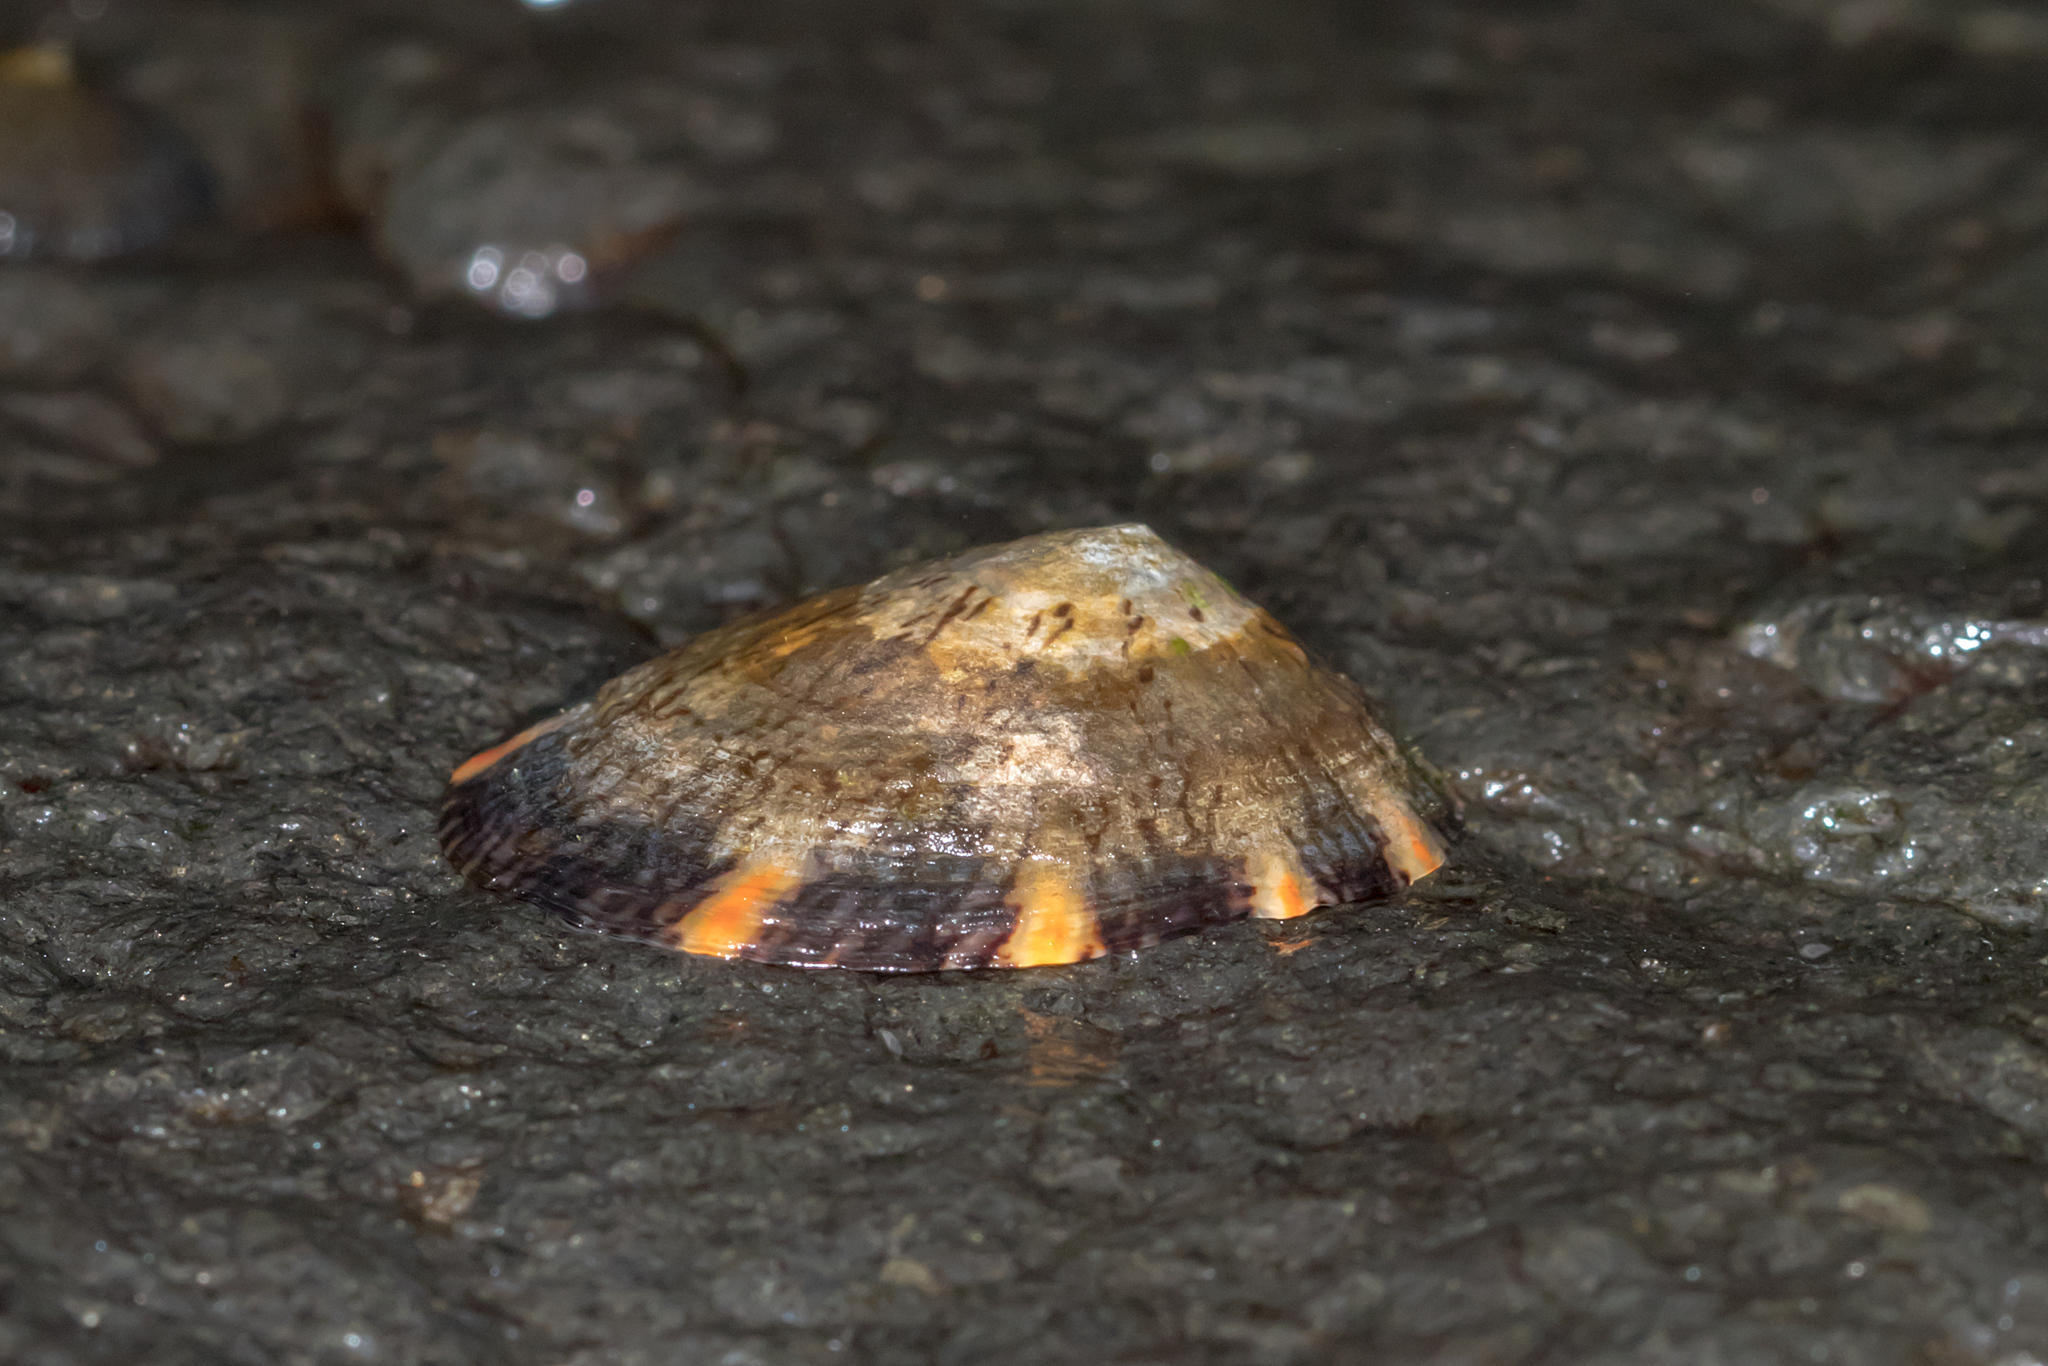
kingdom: Animalia
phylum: Mollusca
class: Gastropoda
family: Nacellidae
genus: Cellana
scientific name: Cellana tramoserica
